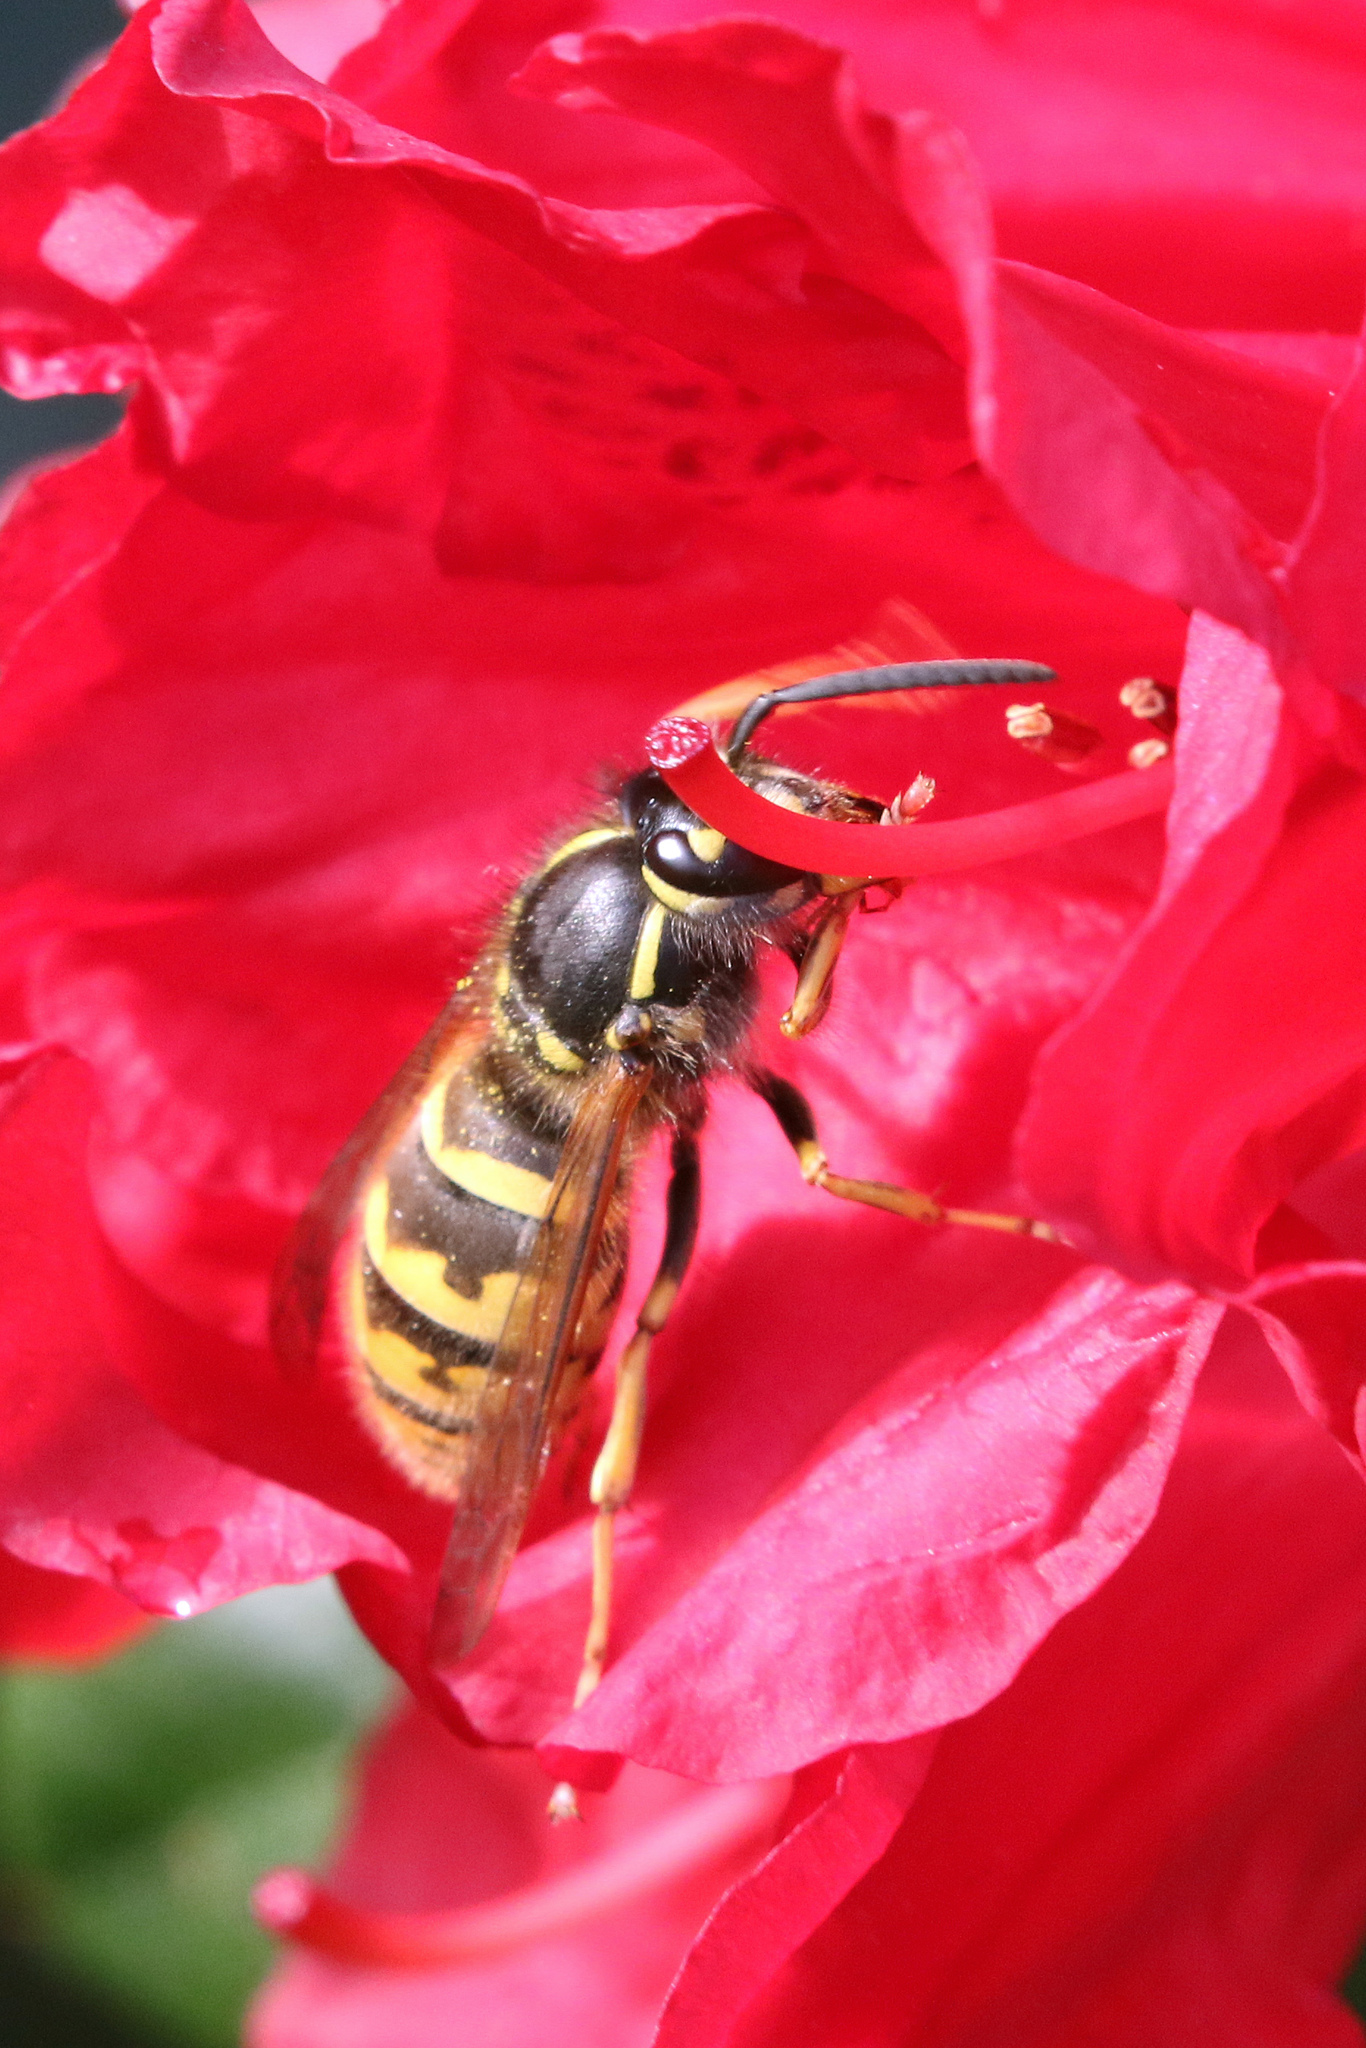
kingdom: Animalia
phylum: Arthropoda
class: Insecta
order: Hymenoptera
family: Vespidae
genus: Vespula
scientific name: Vespula vulgaris
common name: Common wasp
